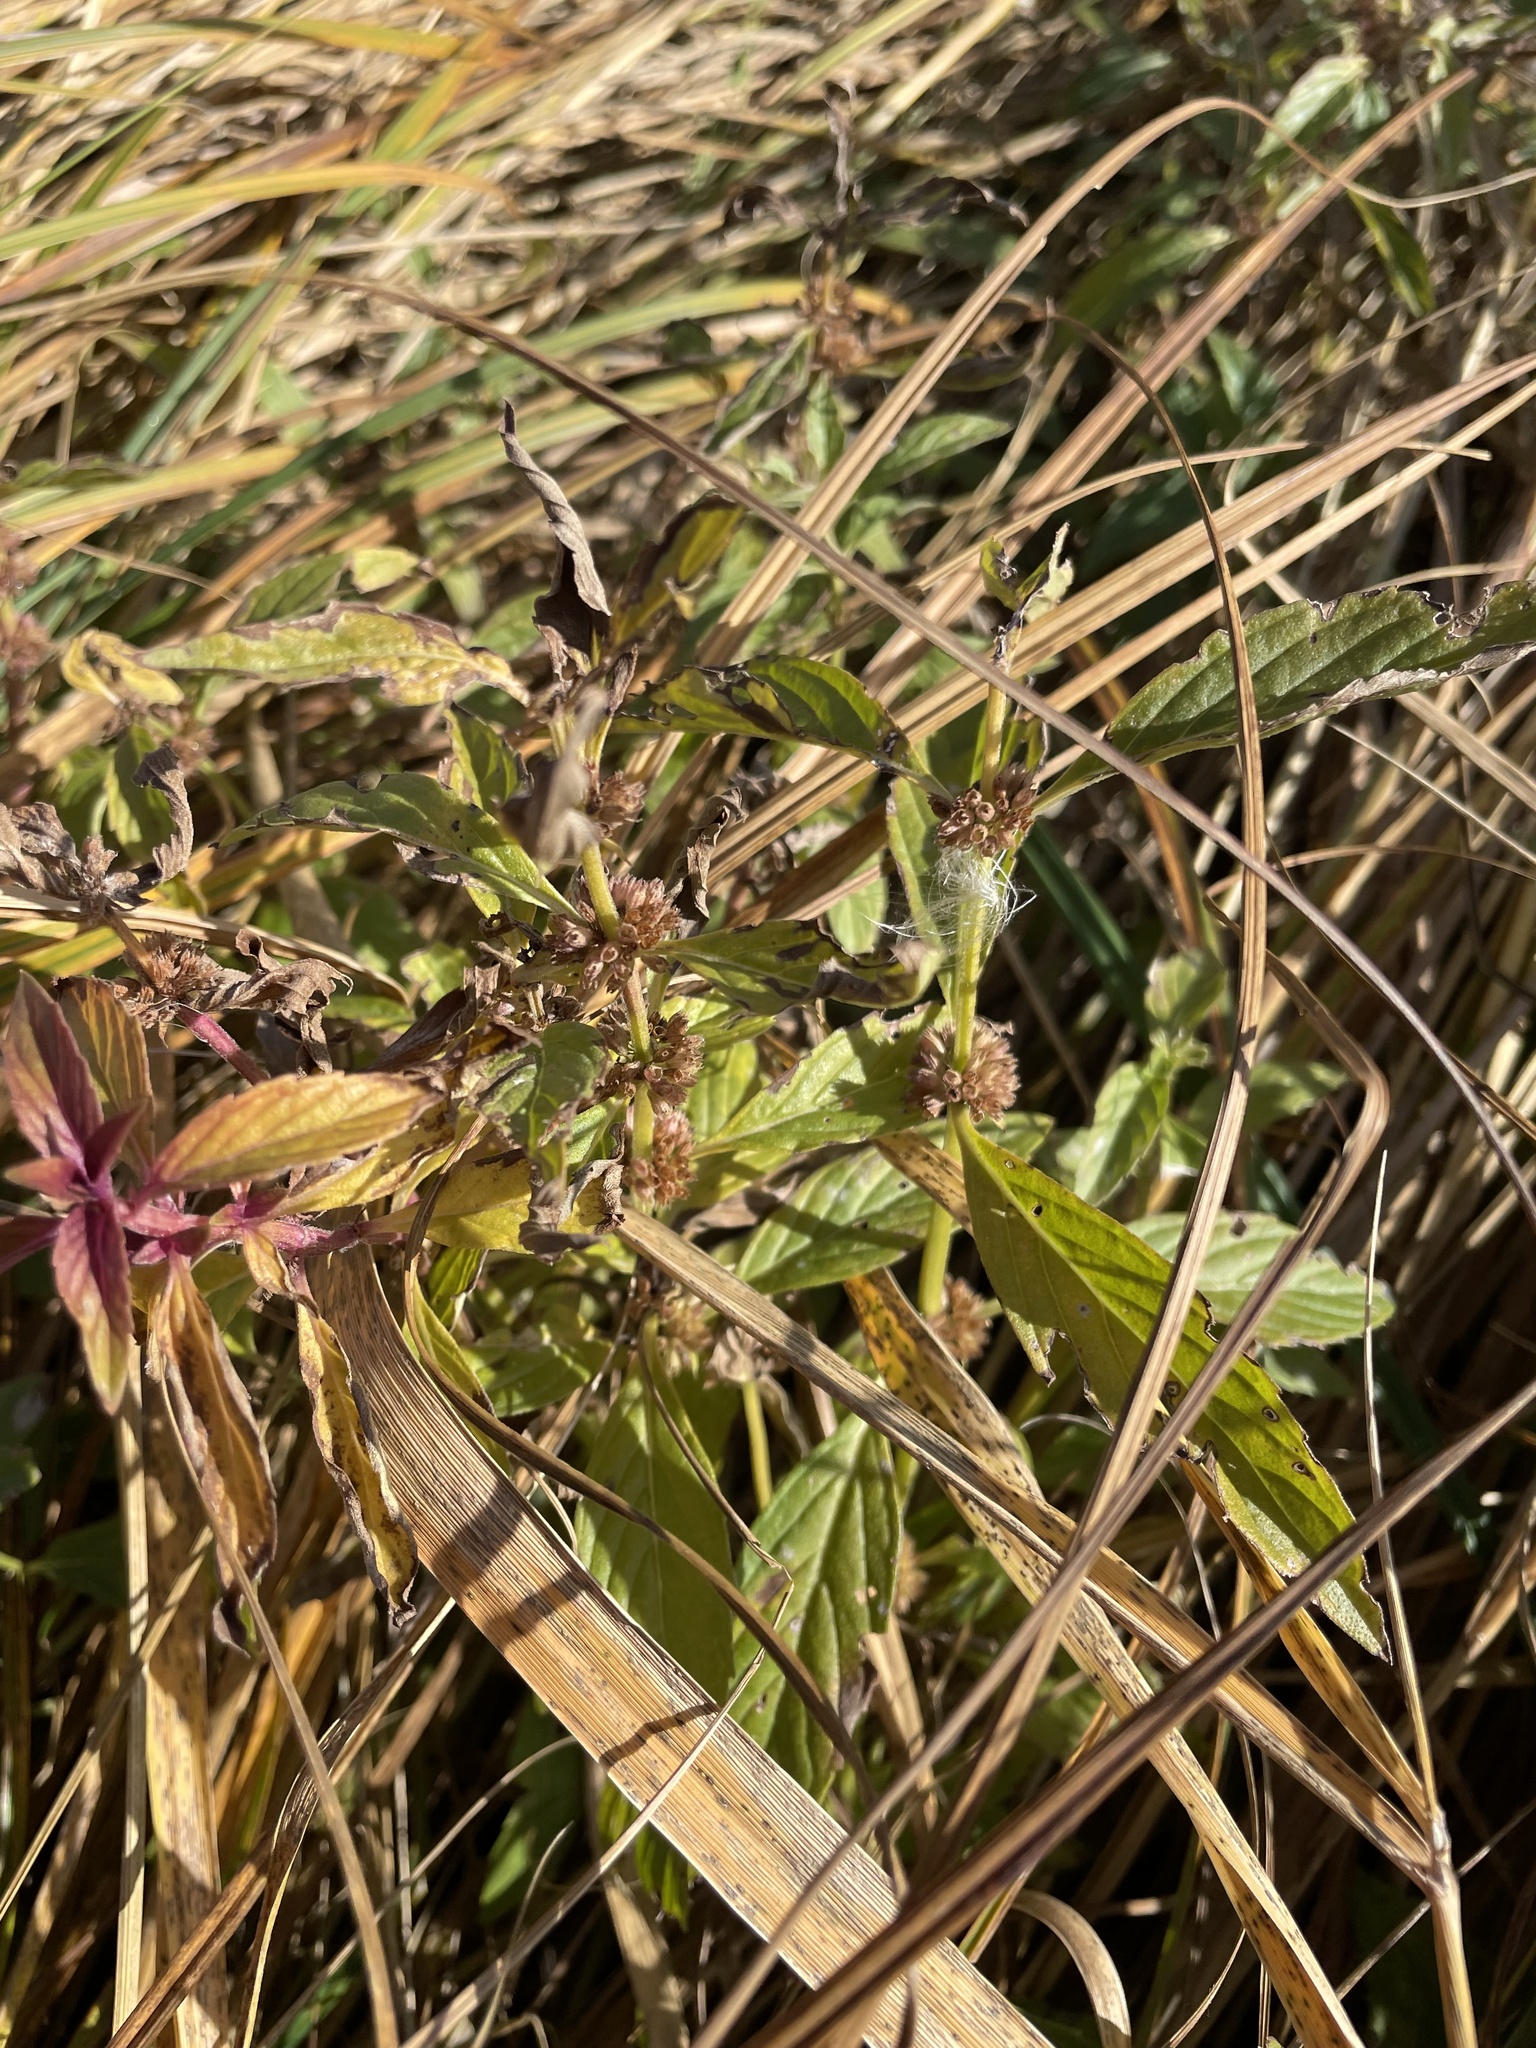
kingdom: Plantae
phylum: Tracheophyta
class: Magnoliopsida
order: Lamiales
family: Lamiaceae
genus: Mentha
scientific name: Mentha canadensis
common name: American corn mint
